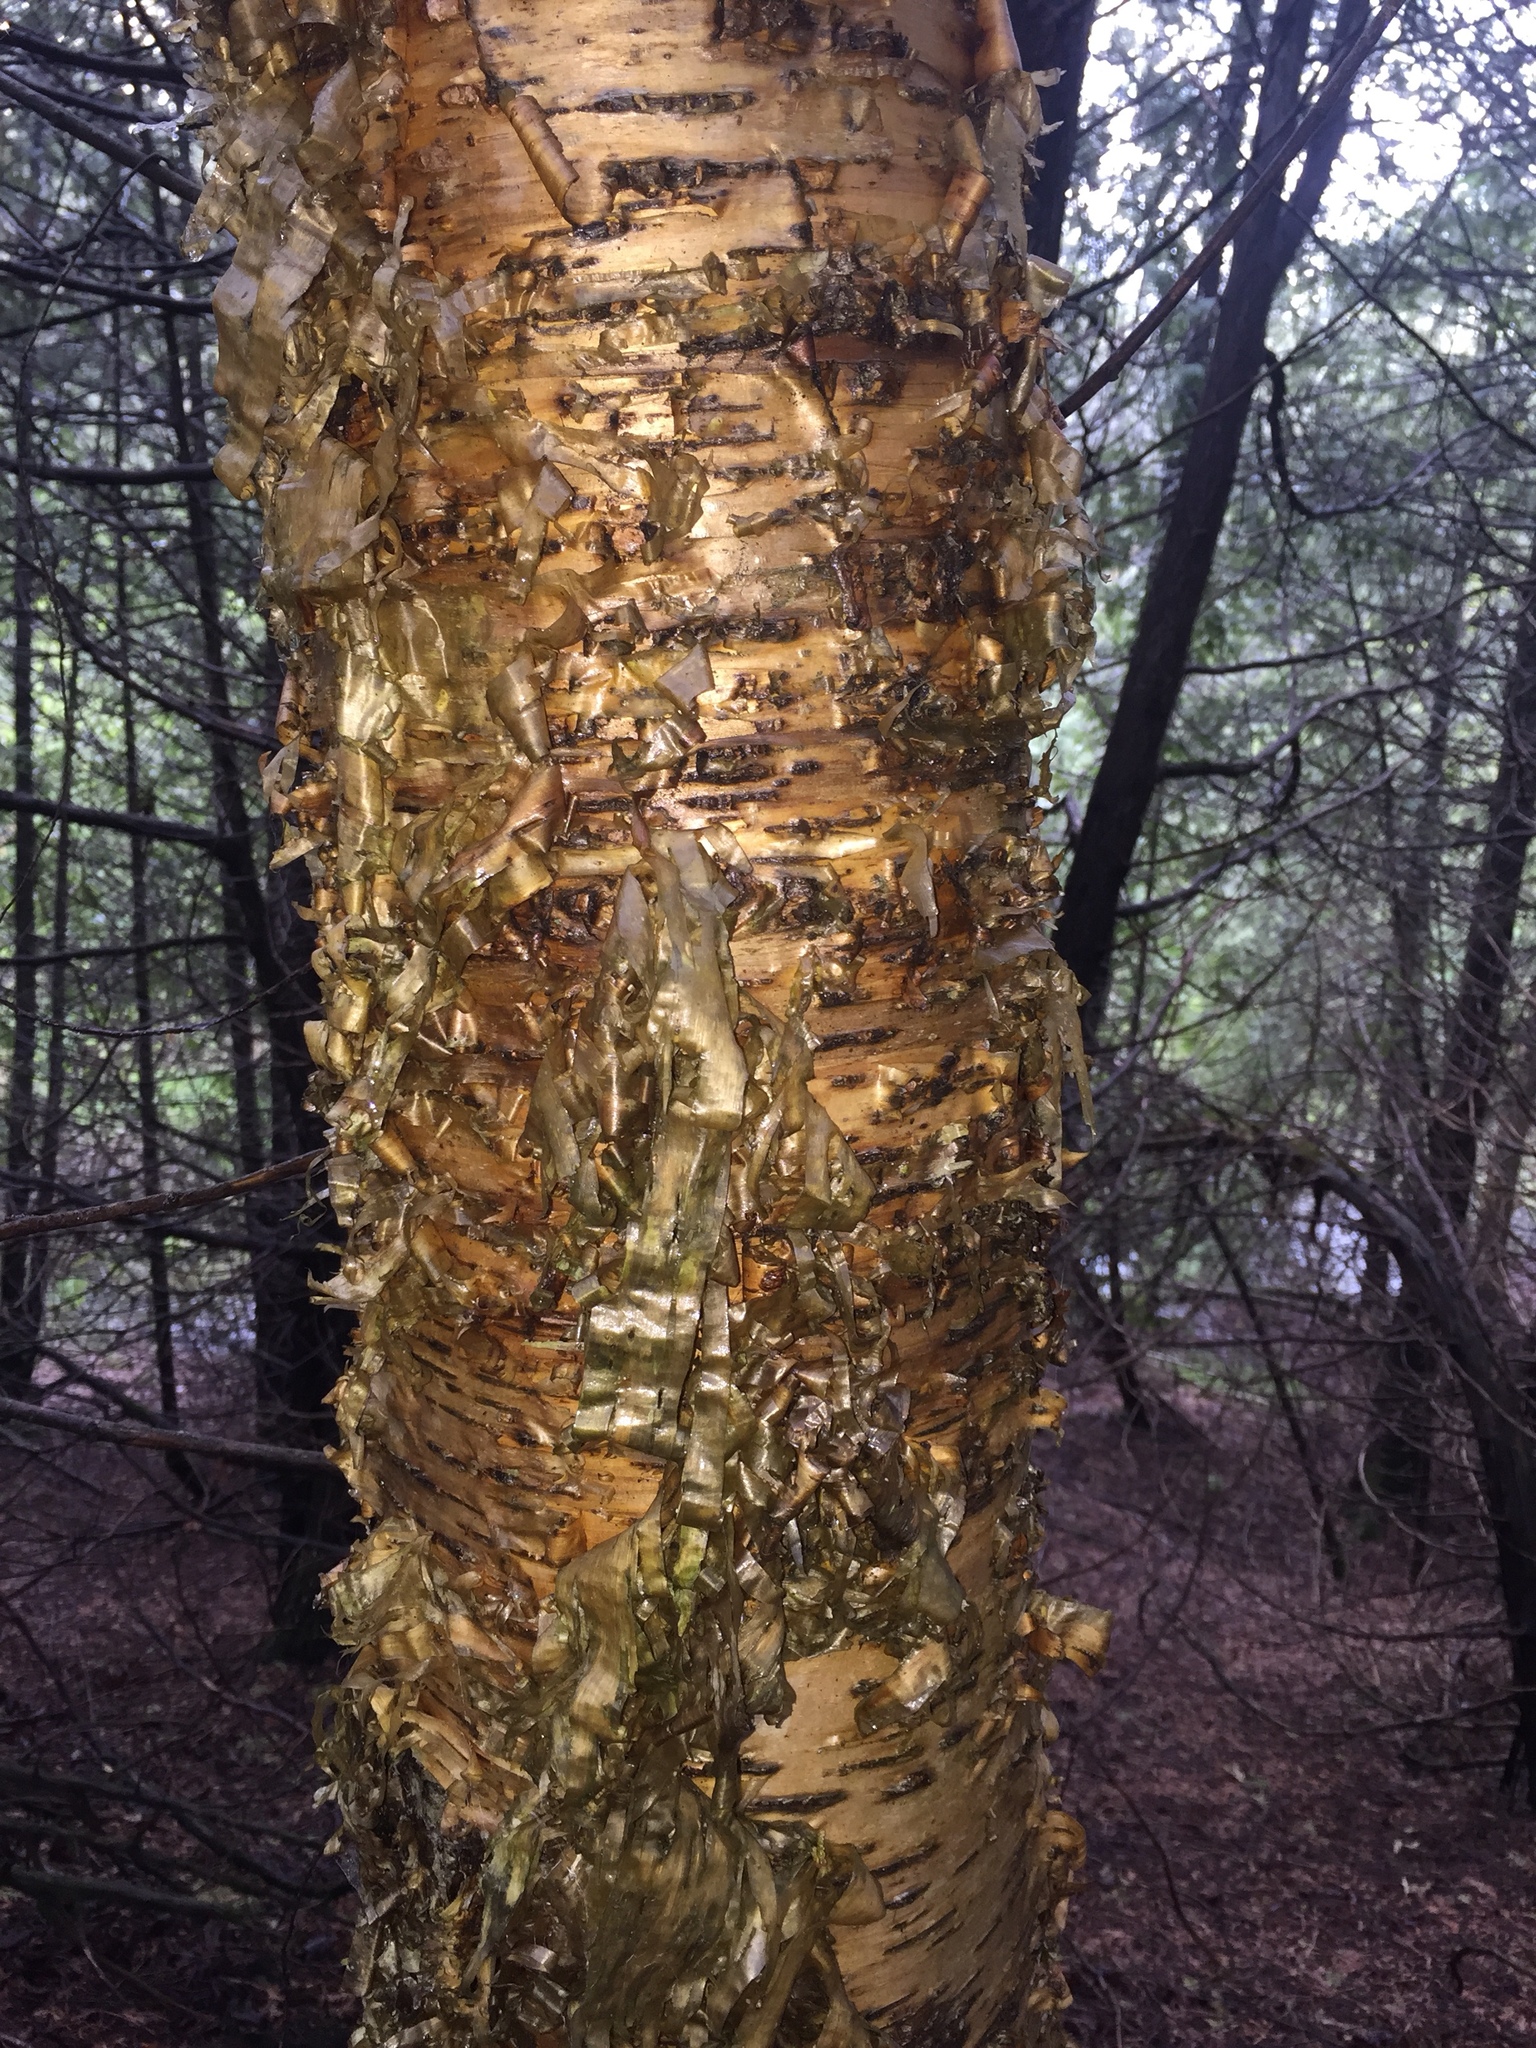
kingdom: Plantae
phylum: Tracheophyta
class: Magnoliopsida
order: Fagales
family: Betulaceae
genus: Betula
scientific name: Betula alleghaniensis
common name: Yellow birch
